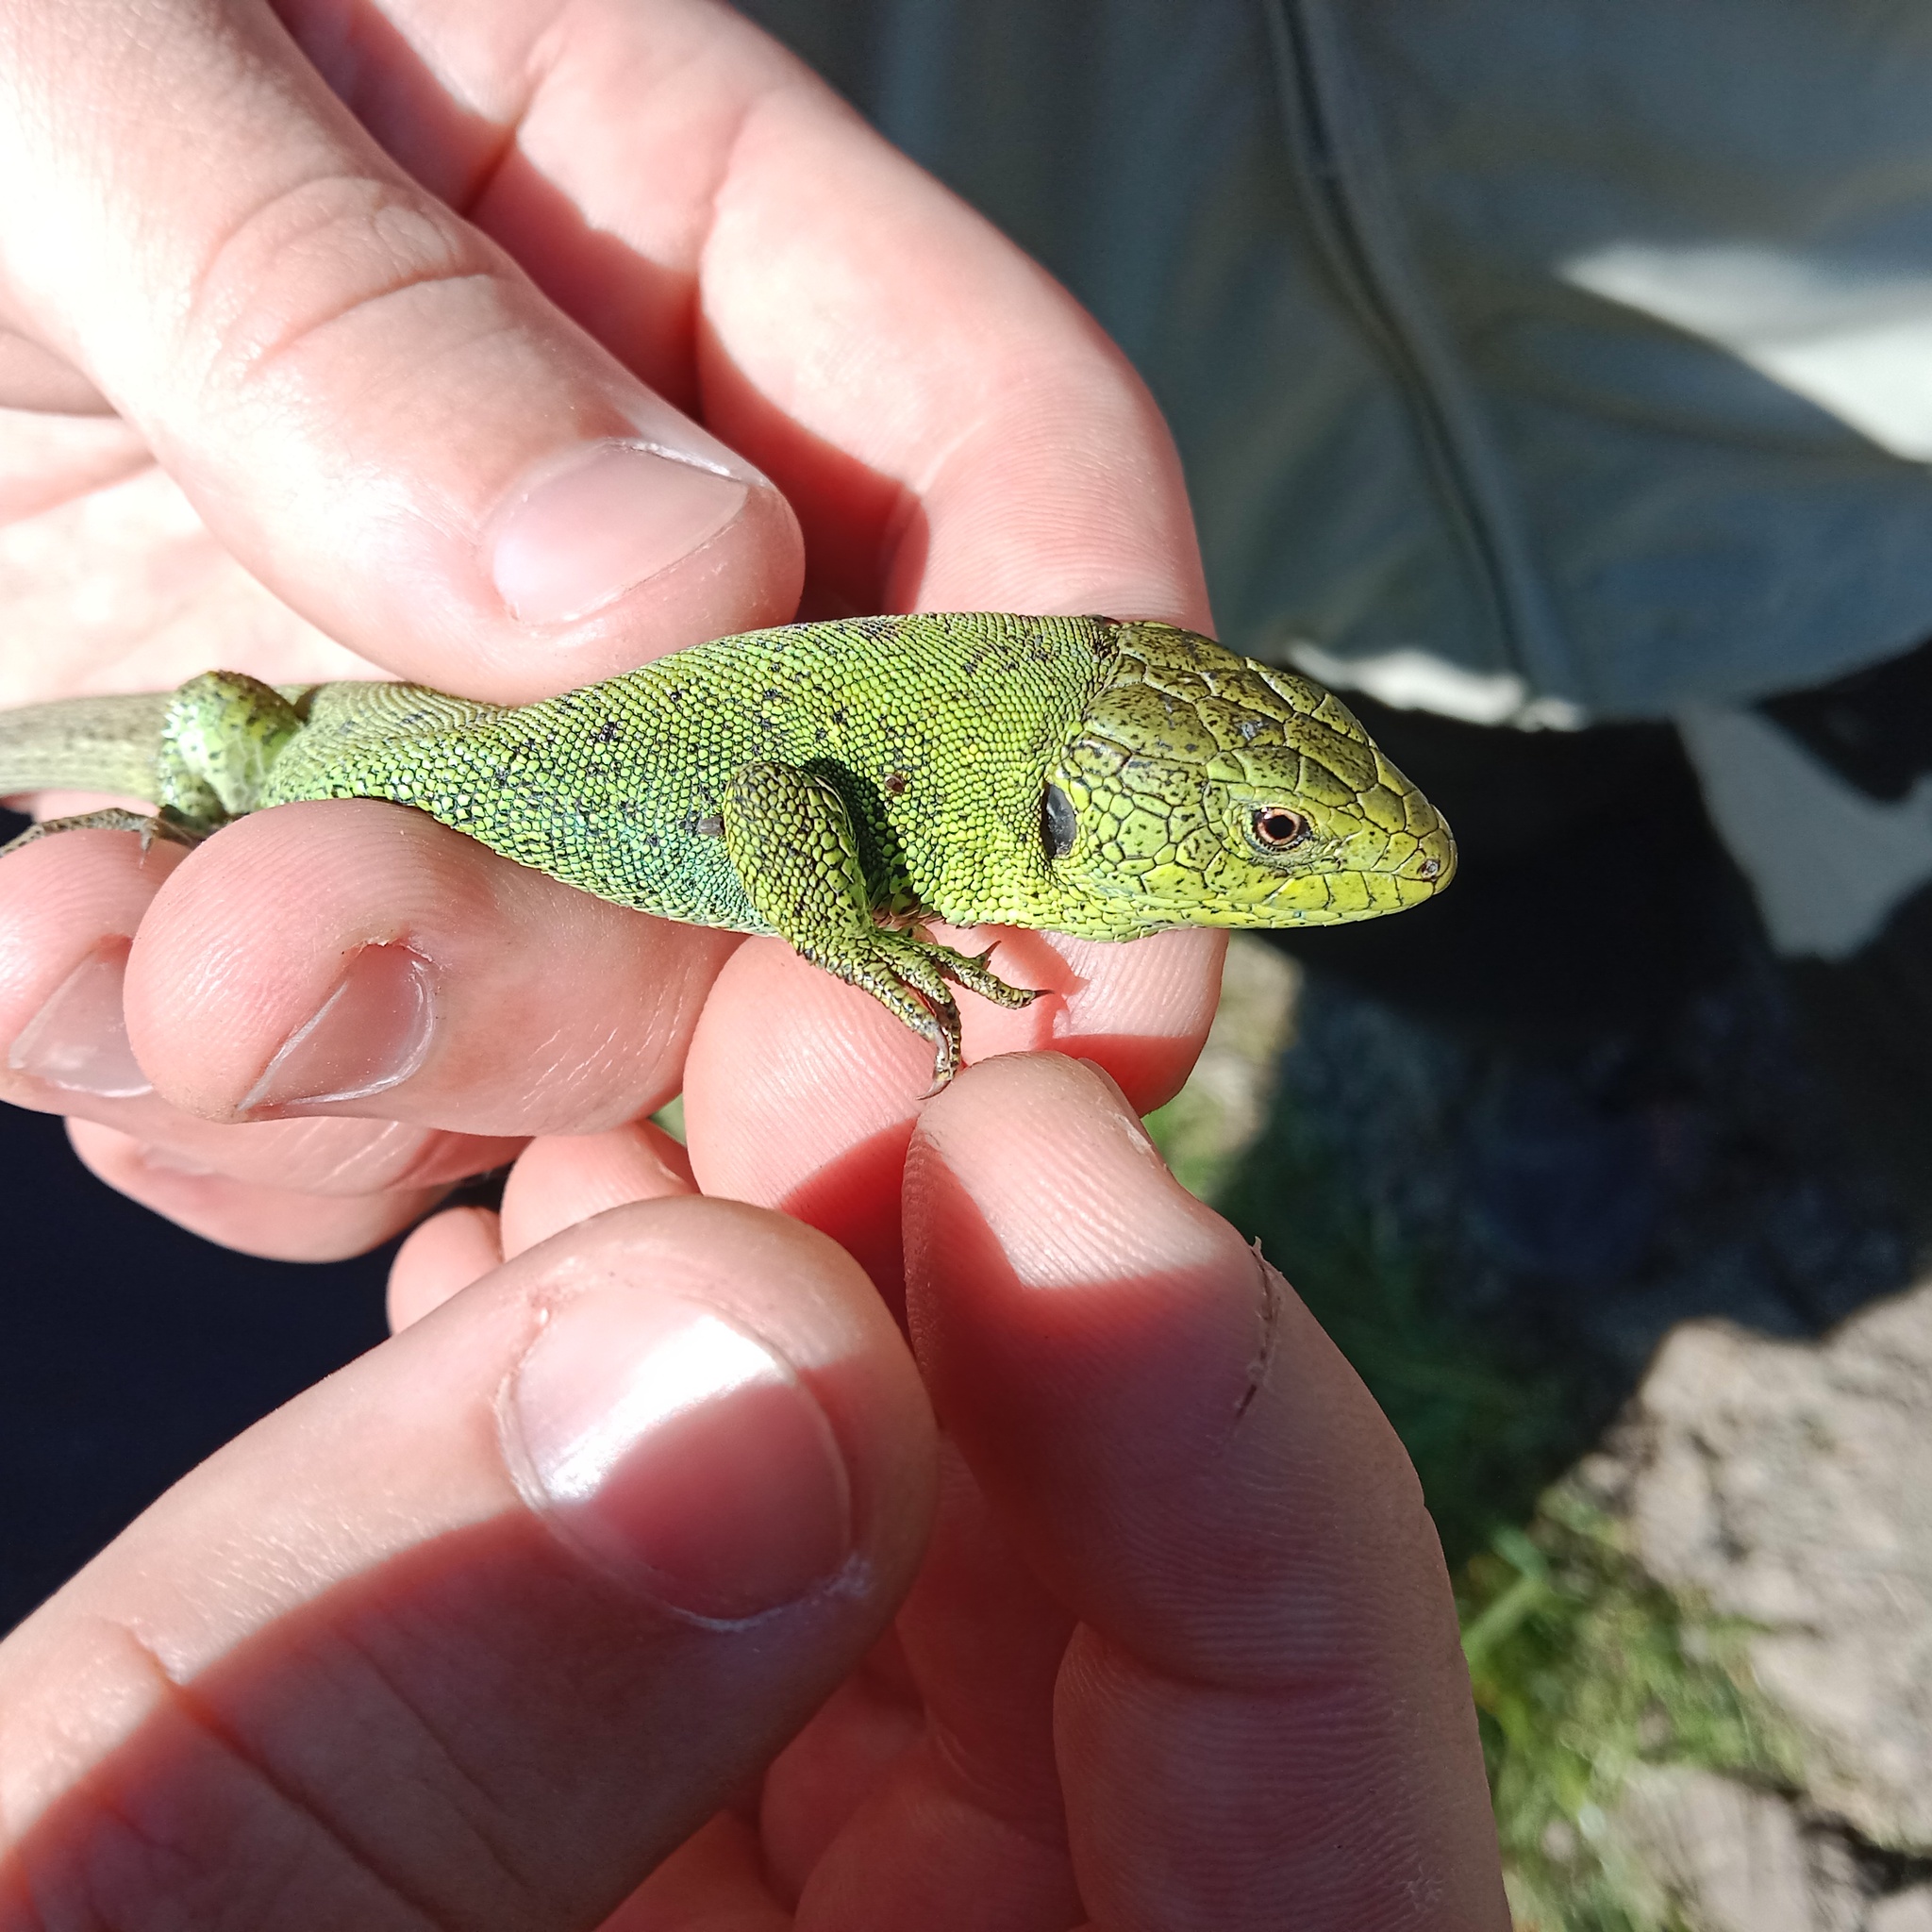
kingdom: Animalia
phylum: Chordata
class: Squamata
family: Lacertidae
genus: Lacerta
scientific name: Lacerta agilis
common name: Sand lizard
